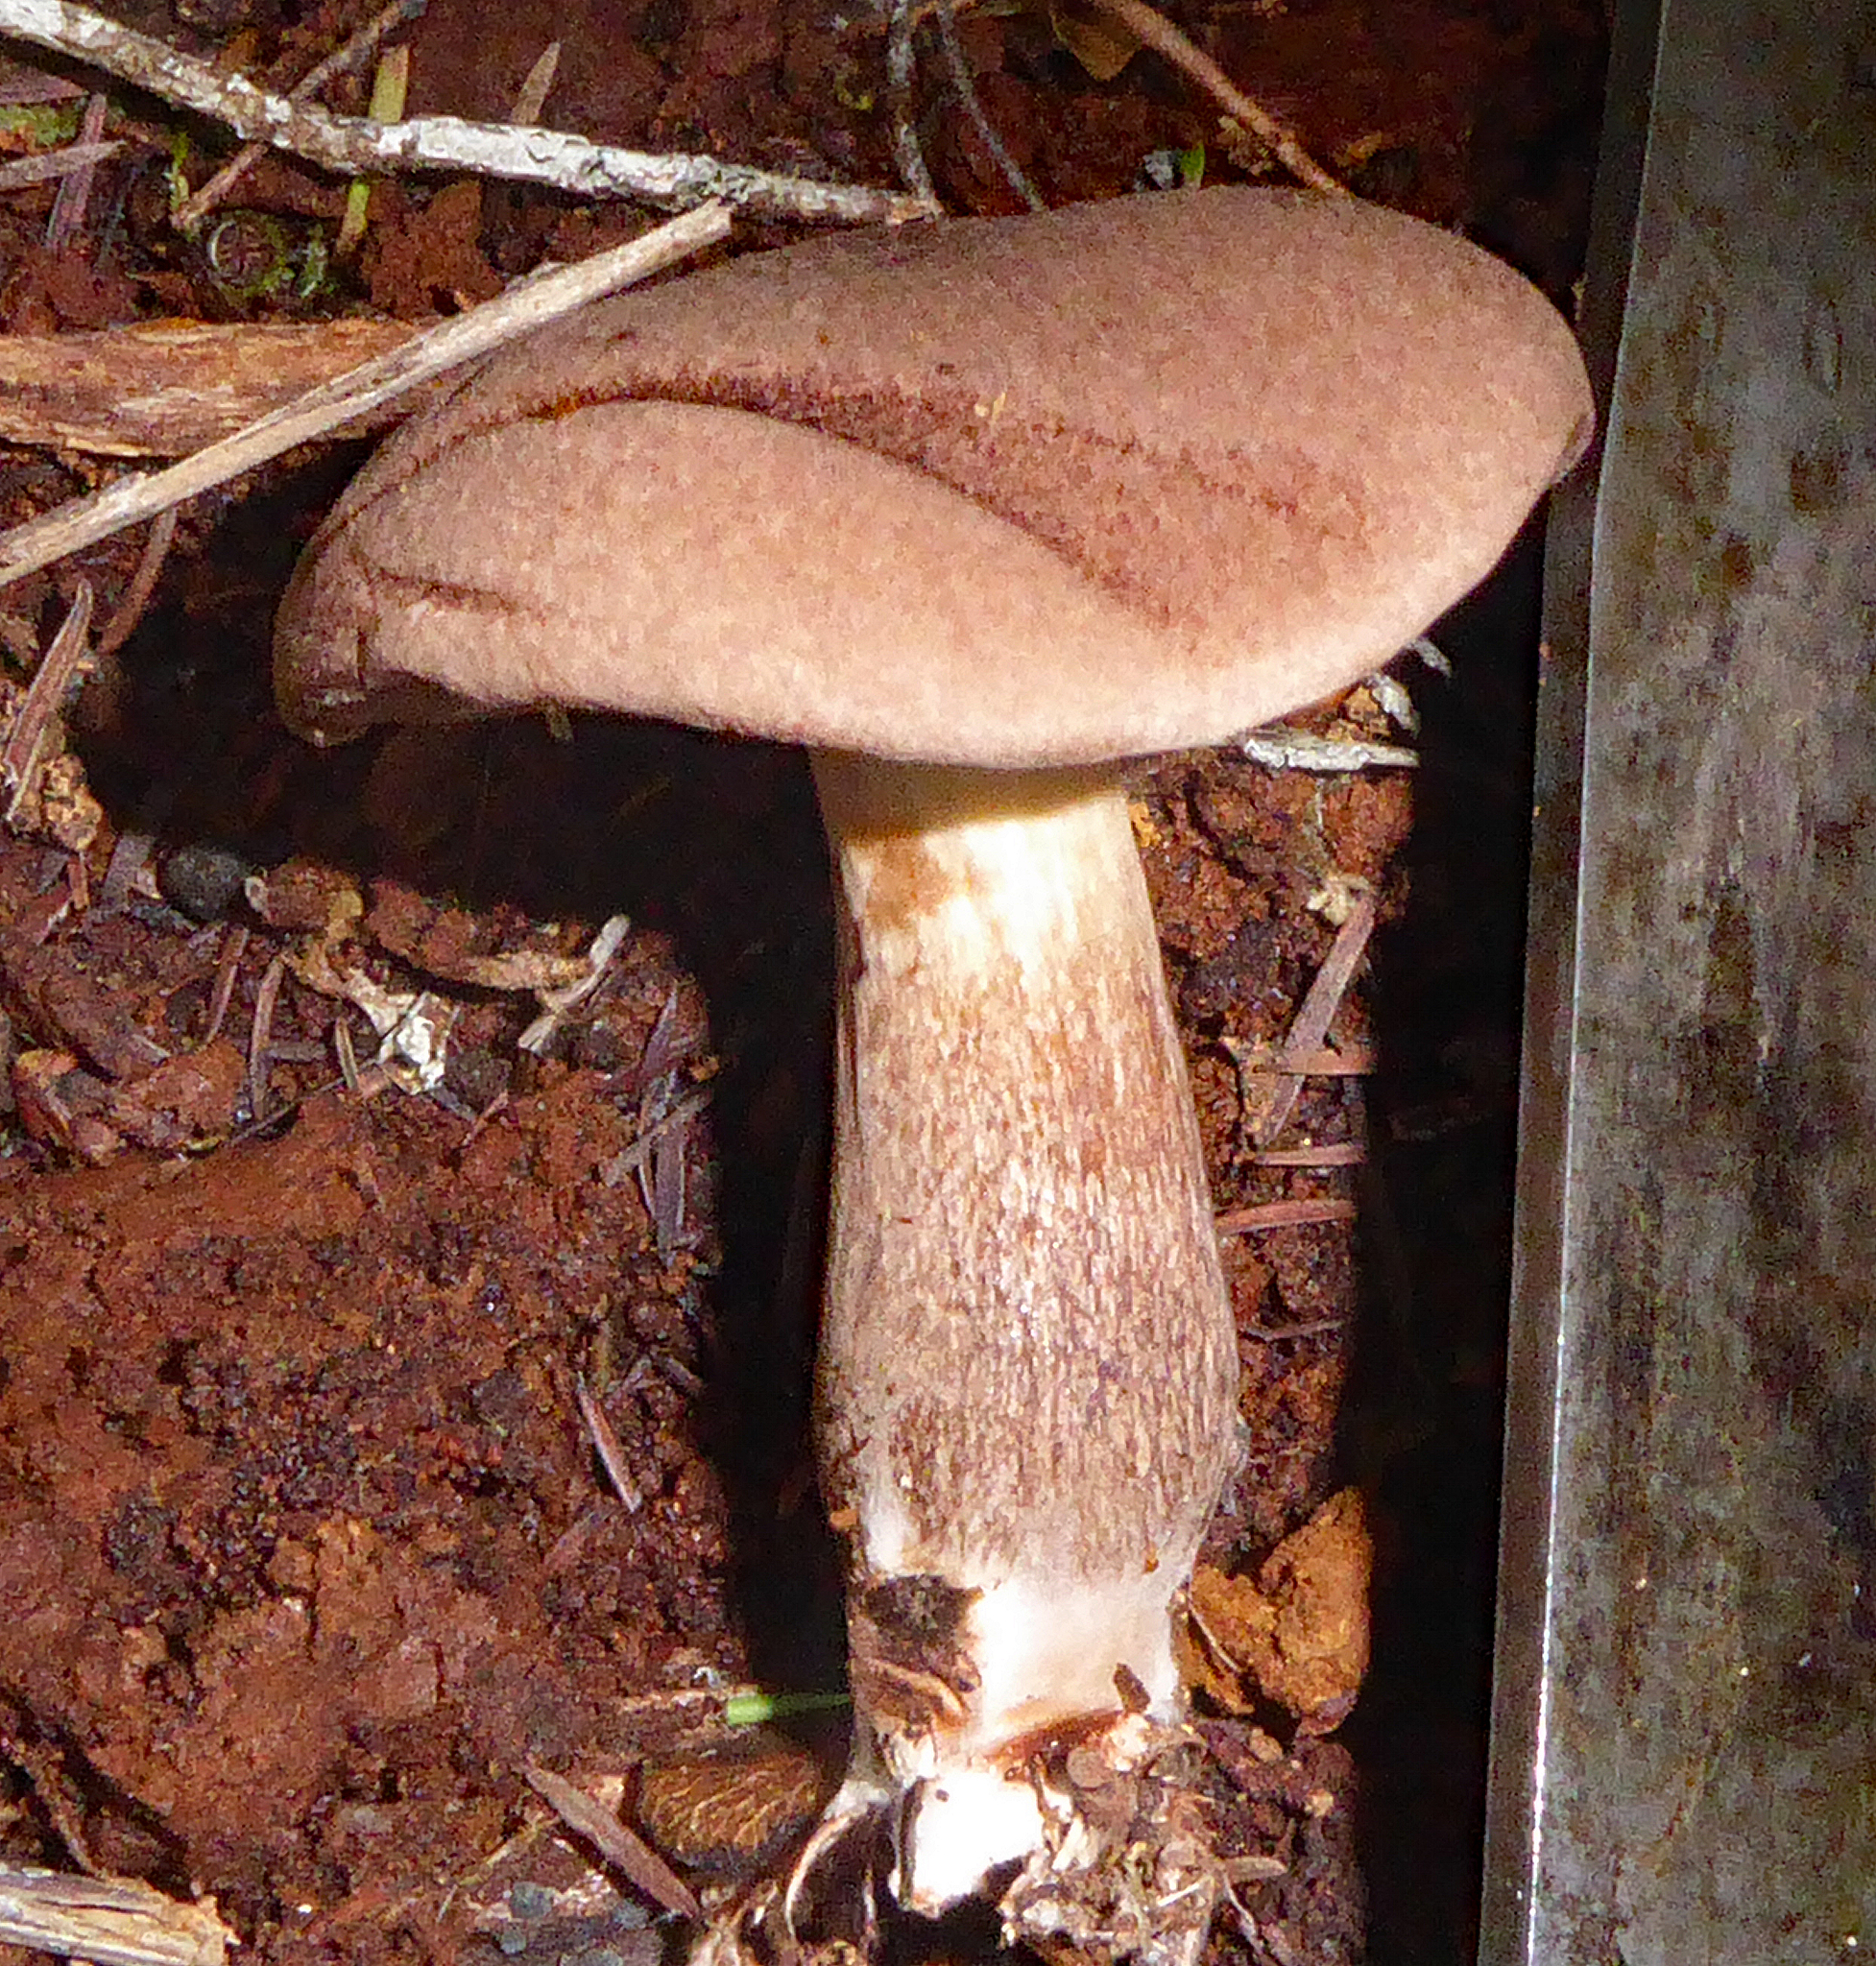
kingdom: Fungi
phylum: Basidiomycota
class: Agaricomycetes
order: Boletales
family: Boletaceae
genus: Porphyrellus
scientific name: Porphyrellus brunneus
